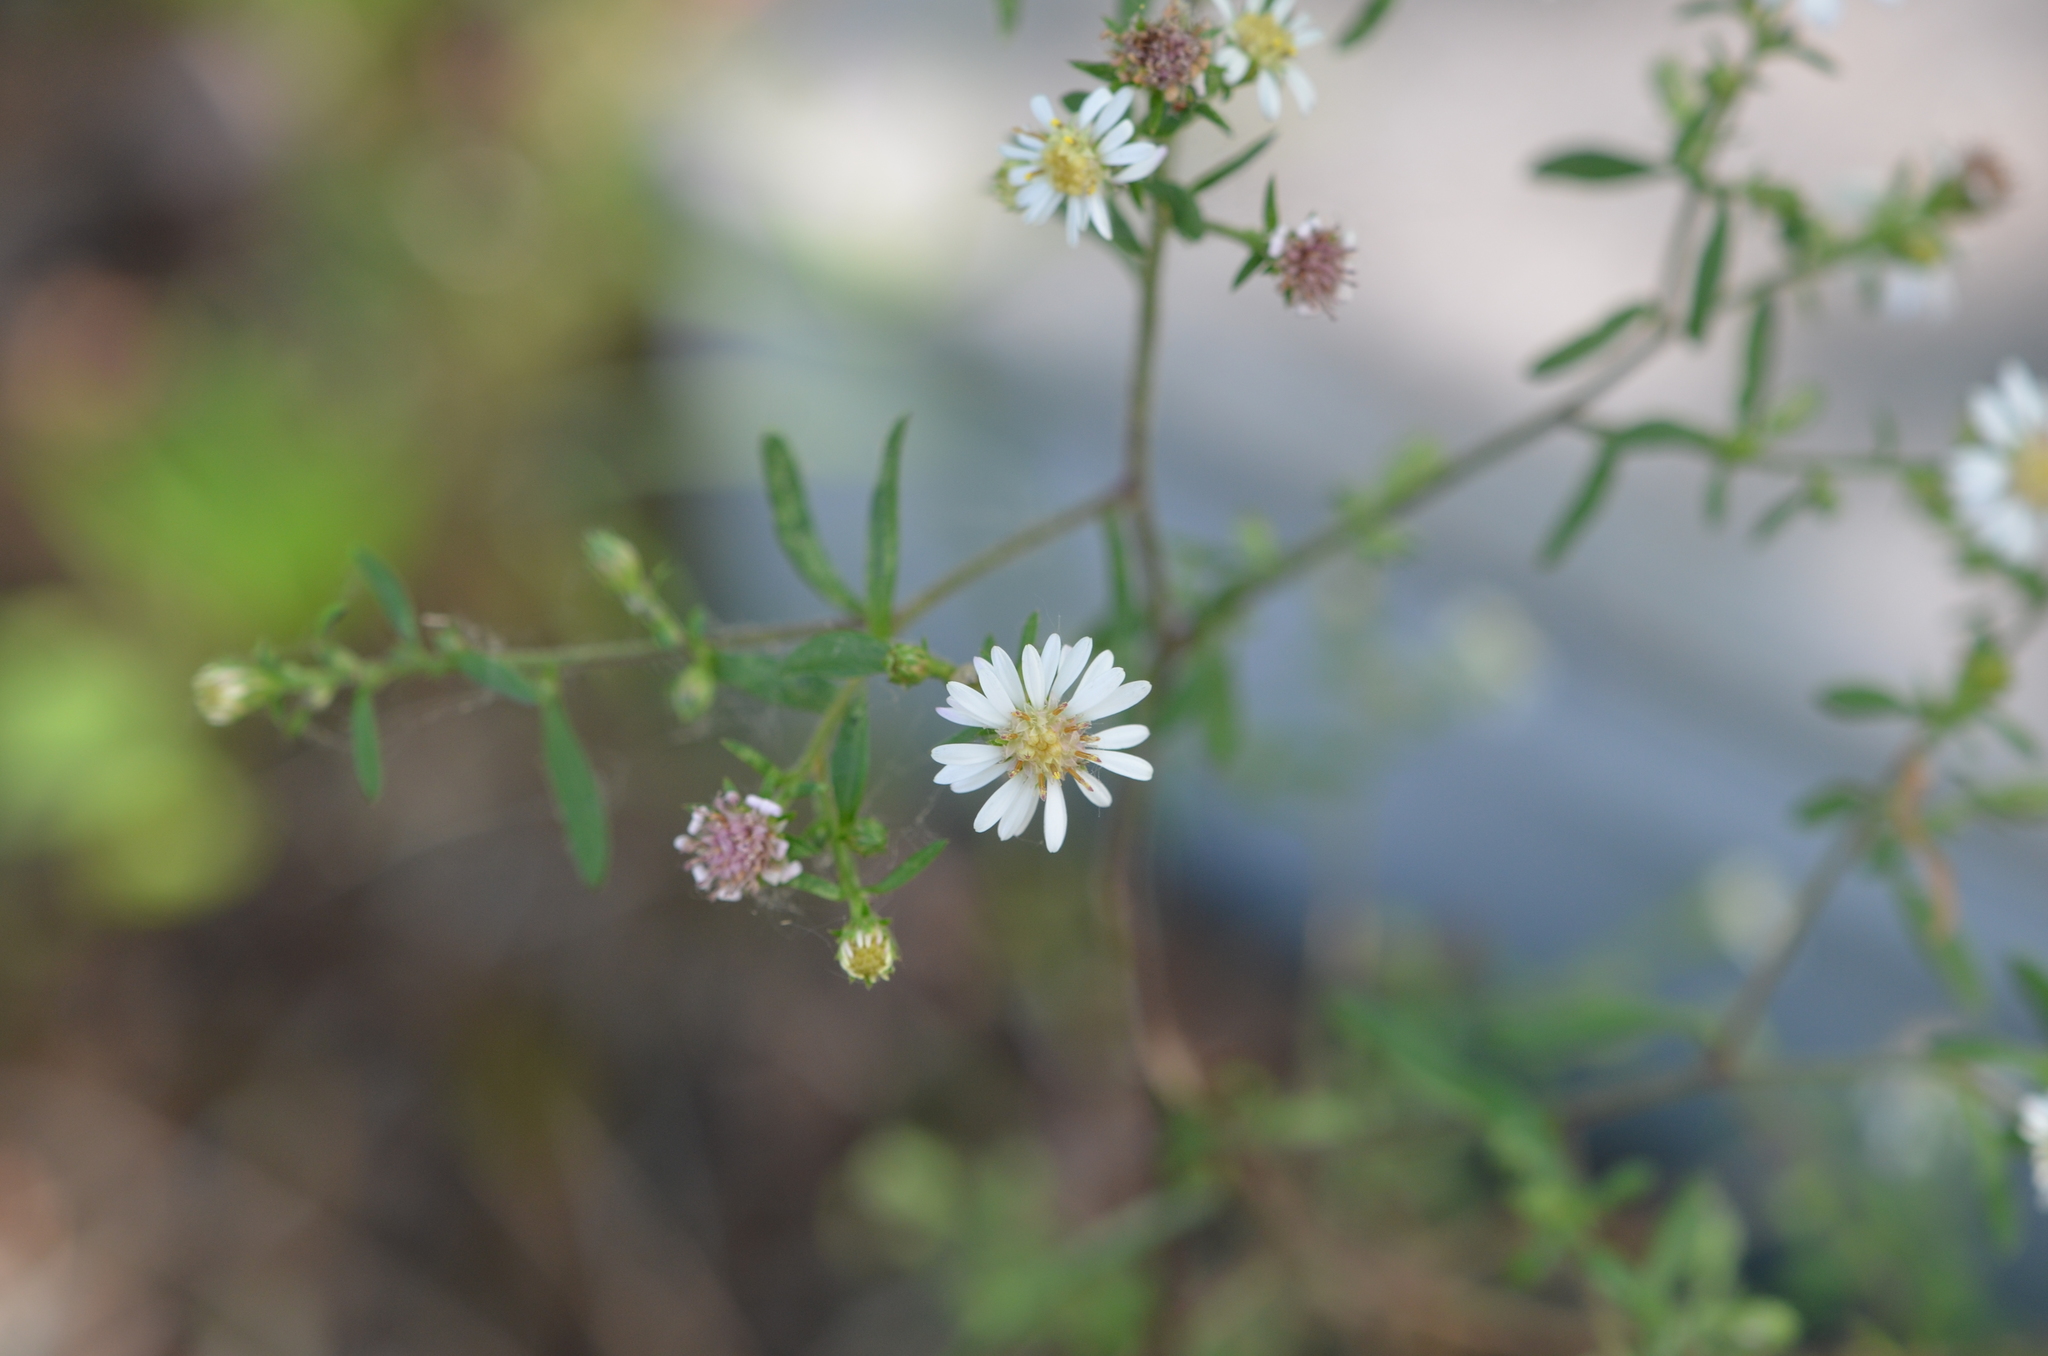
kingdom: Plantae
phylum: Tracheophyta
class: Magnoliopsida
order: Asterales
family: Asteraceae
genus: Symphyotrichum
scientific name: Symphyotrichum lateriflorum
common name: Calico aster
